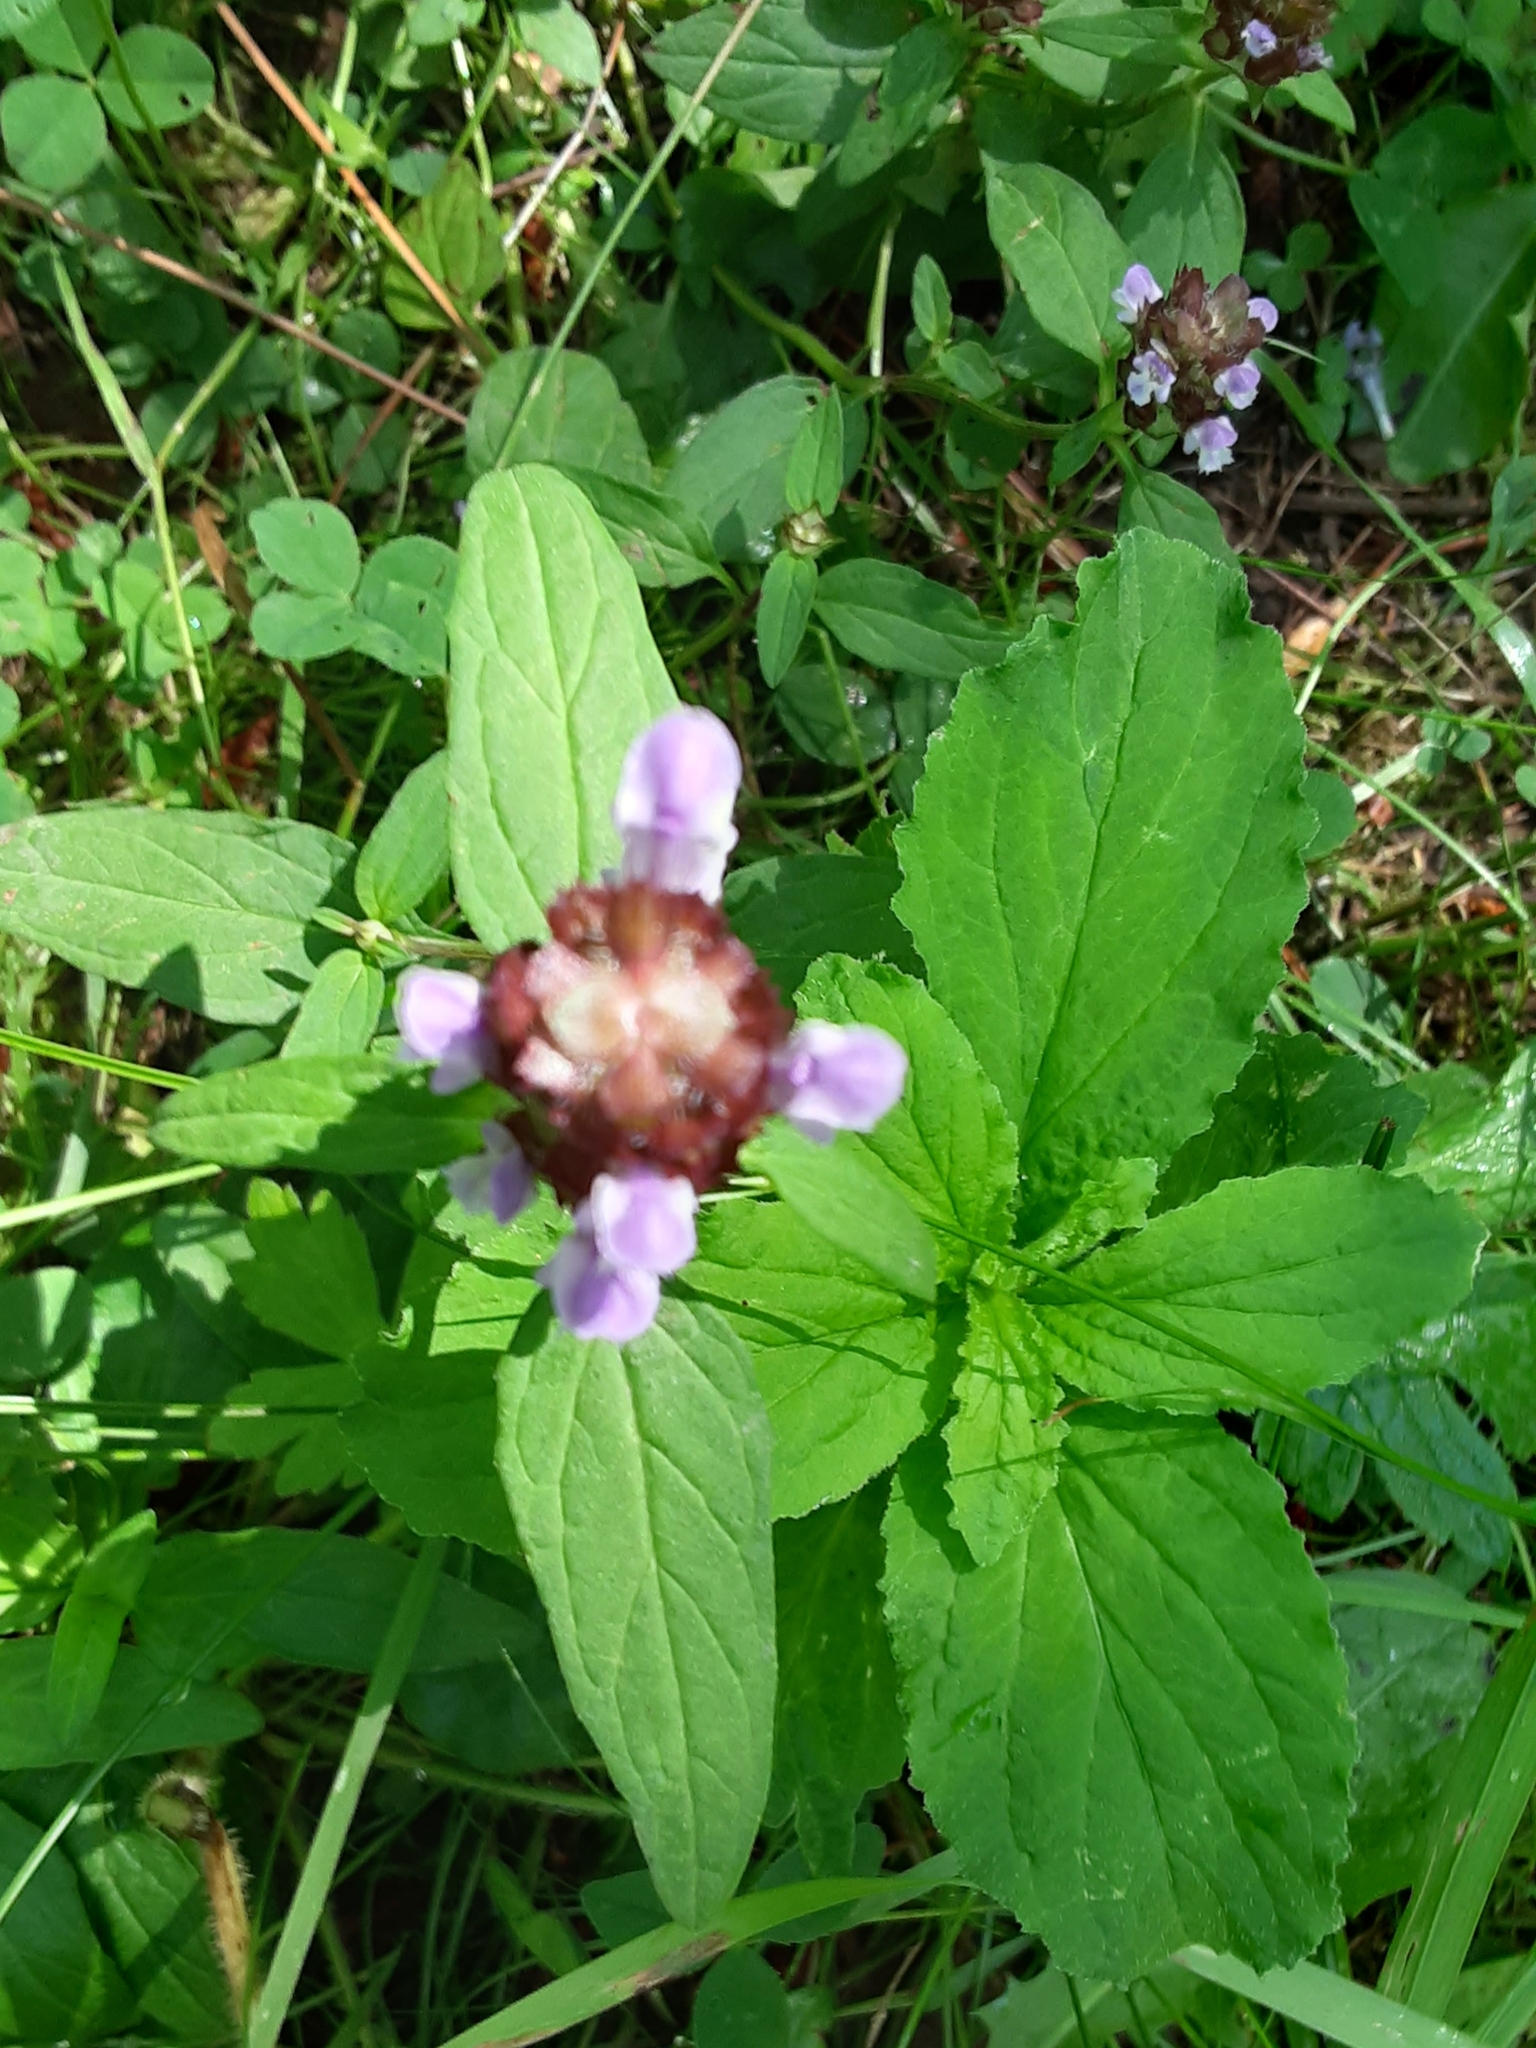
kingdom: Plantae
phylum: Tracheophyta
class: Magnoliopsida
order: Lamiales
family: Lamiaceae
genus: Prunella
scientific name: Prunella vulgaris
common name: Heal-all
